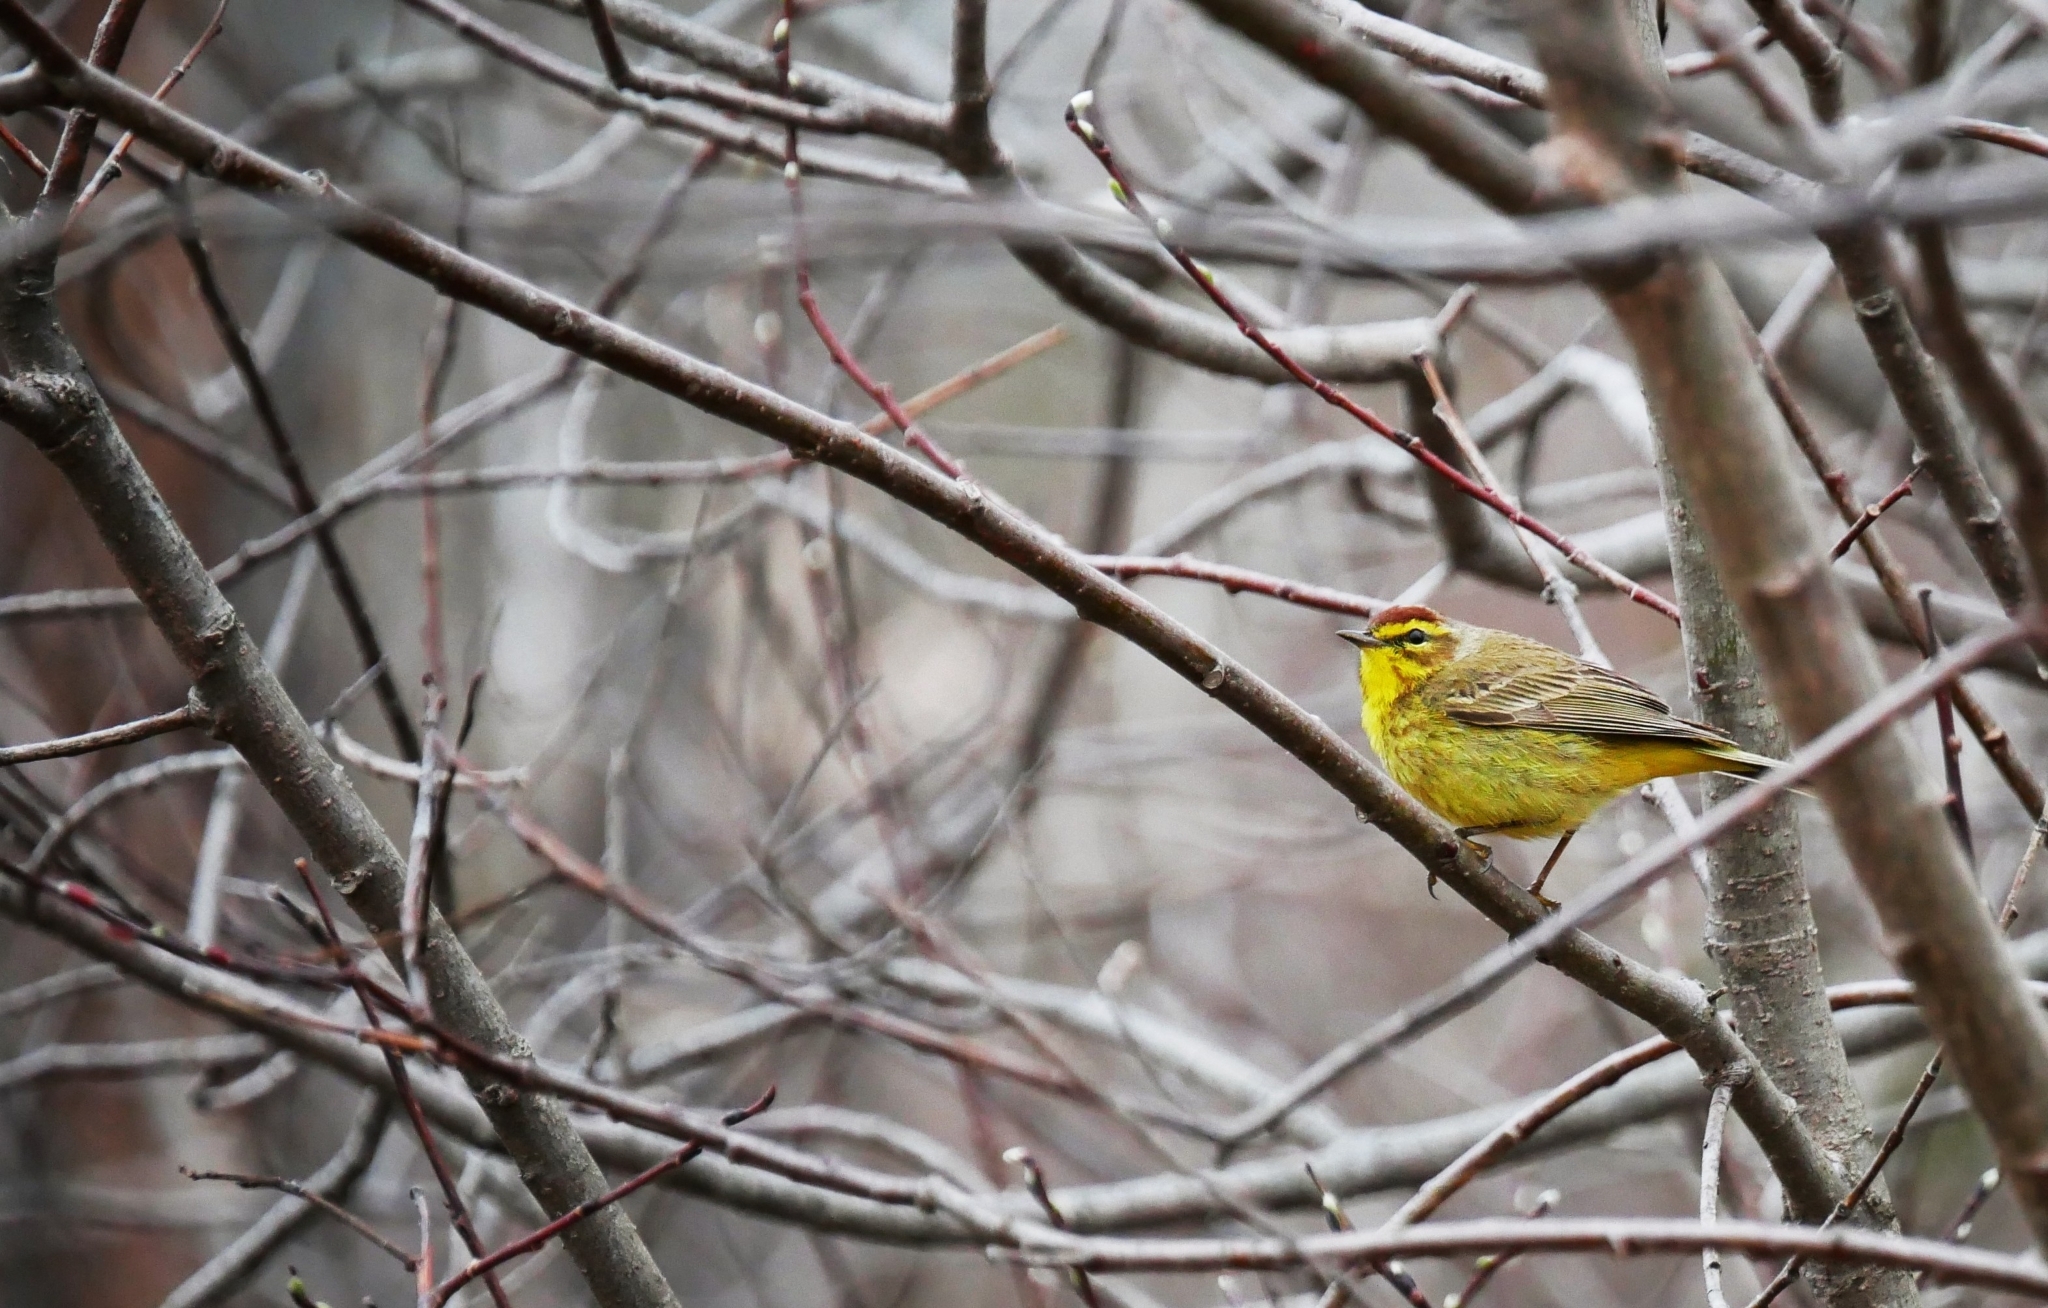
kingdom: Animalia
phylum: Chordata
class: Aves
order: Passeriformes
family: Parulidae
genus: Setophaga
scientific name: Setophaga palmarum
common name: Palm warbler
